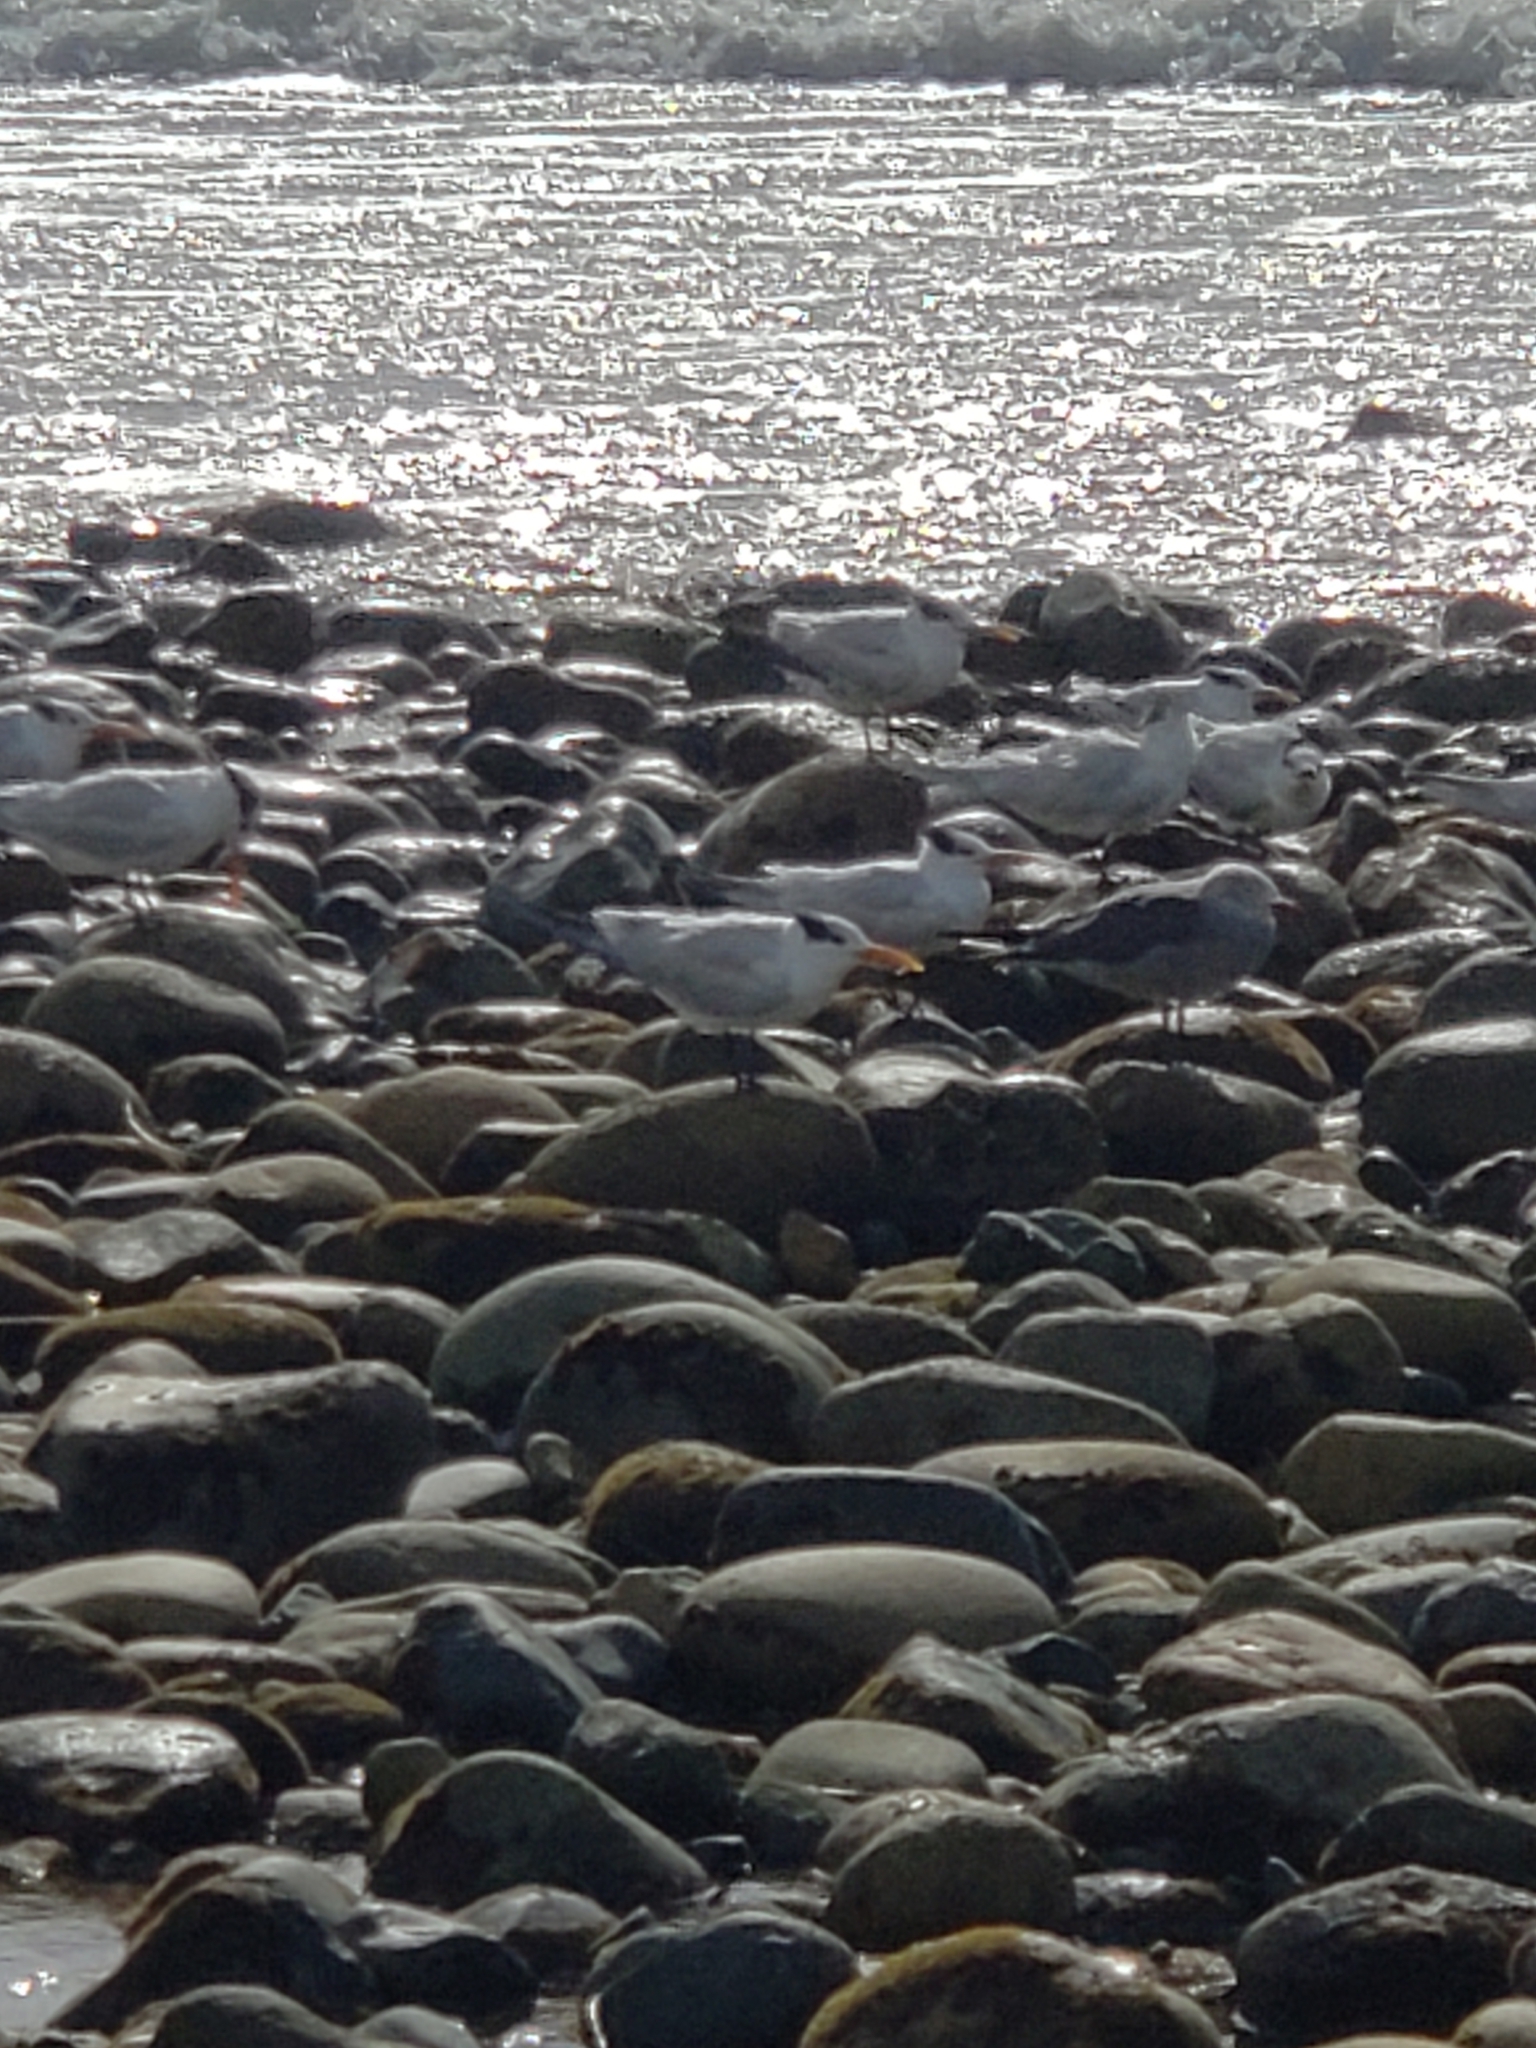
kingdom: Animalia
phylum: Chordata
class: Aves
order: Charadriiformes
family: Laridae
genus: Thalasseus
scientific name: Thalasseus maximus
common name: Royal tern
